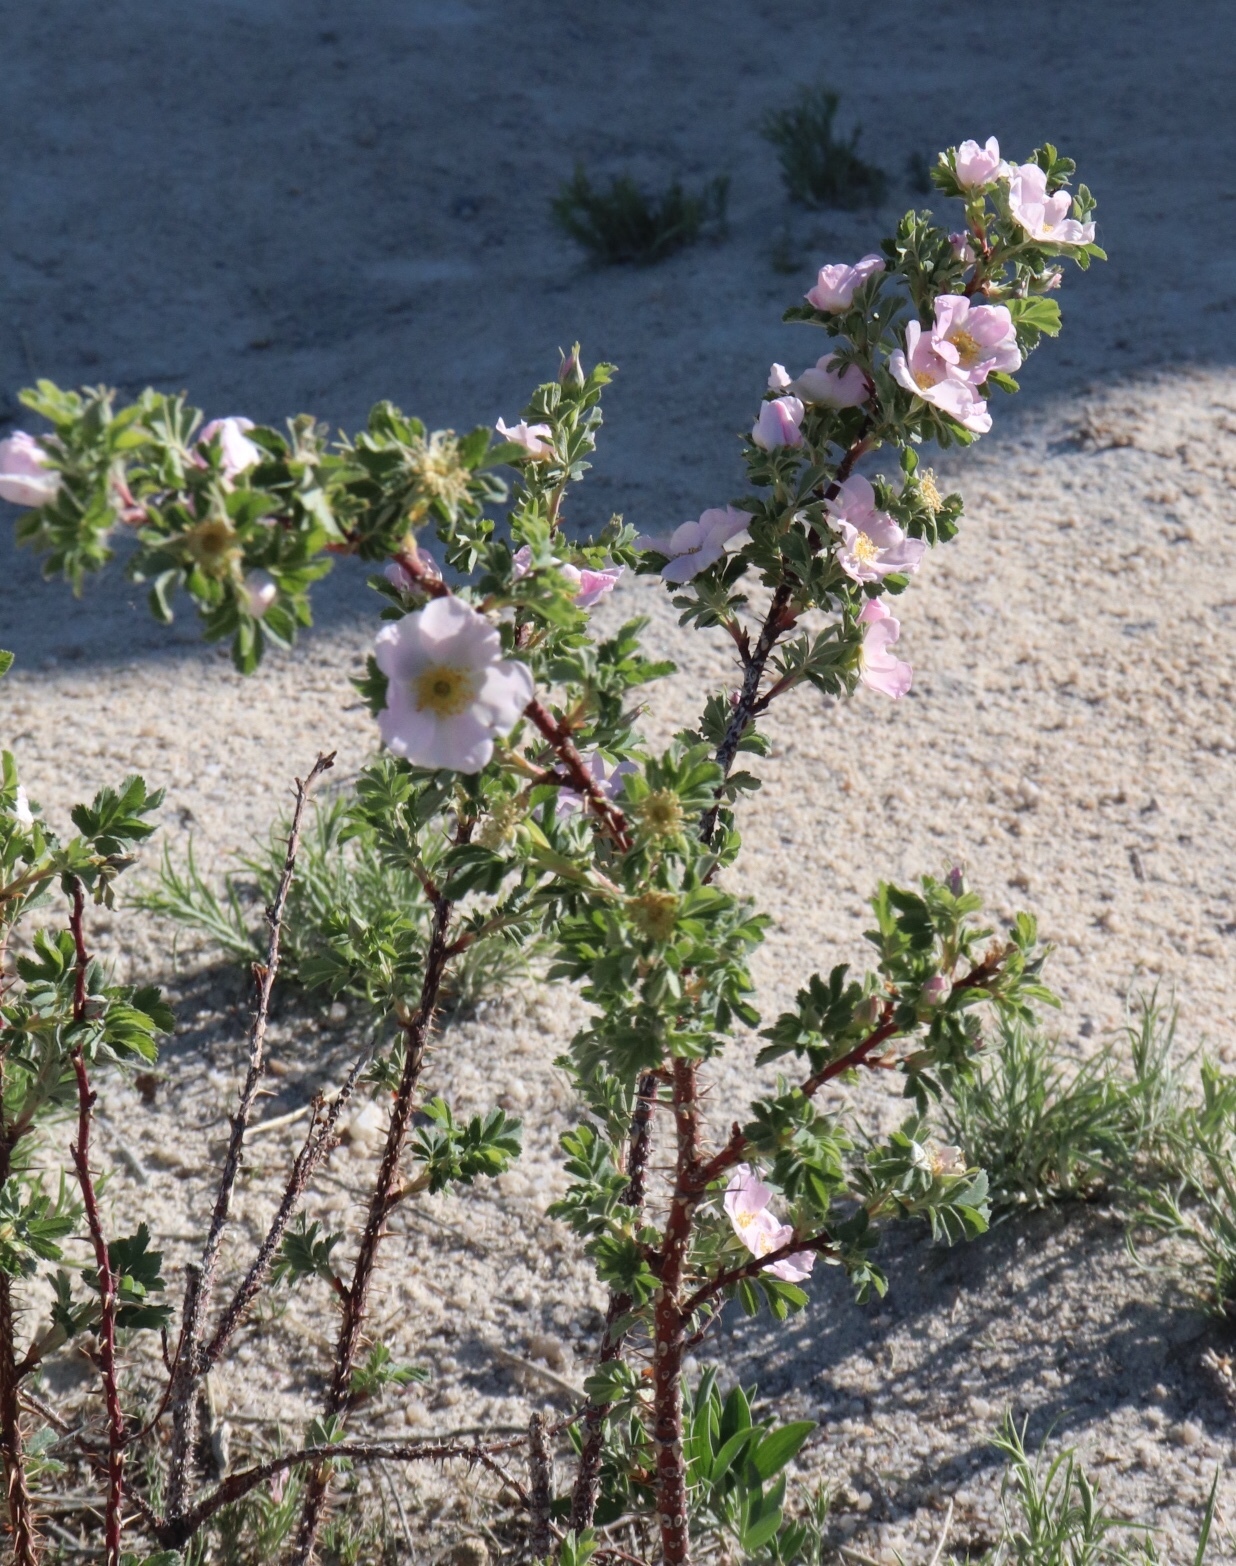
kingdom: Plantae
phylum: Tracheophyta
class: Magnoliopsida
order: Rosales
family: Rosaceae
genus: Rosa
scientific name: Rosa woodsii
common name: Woods's rose
